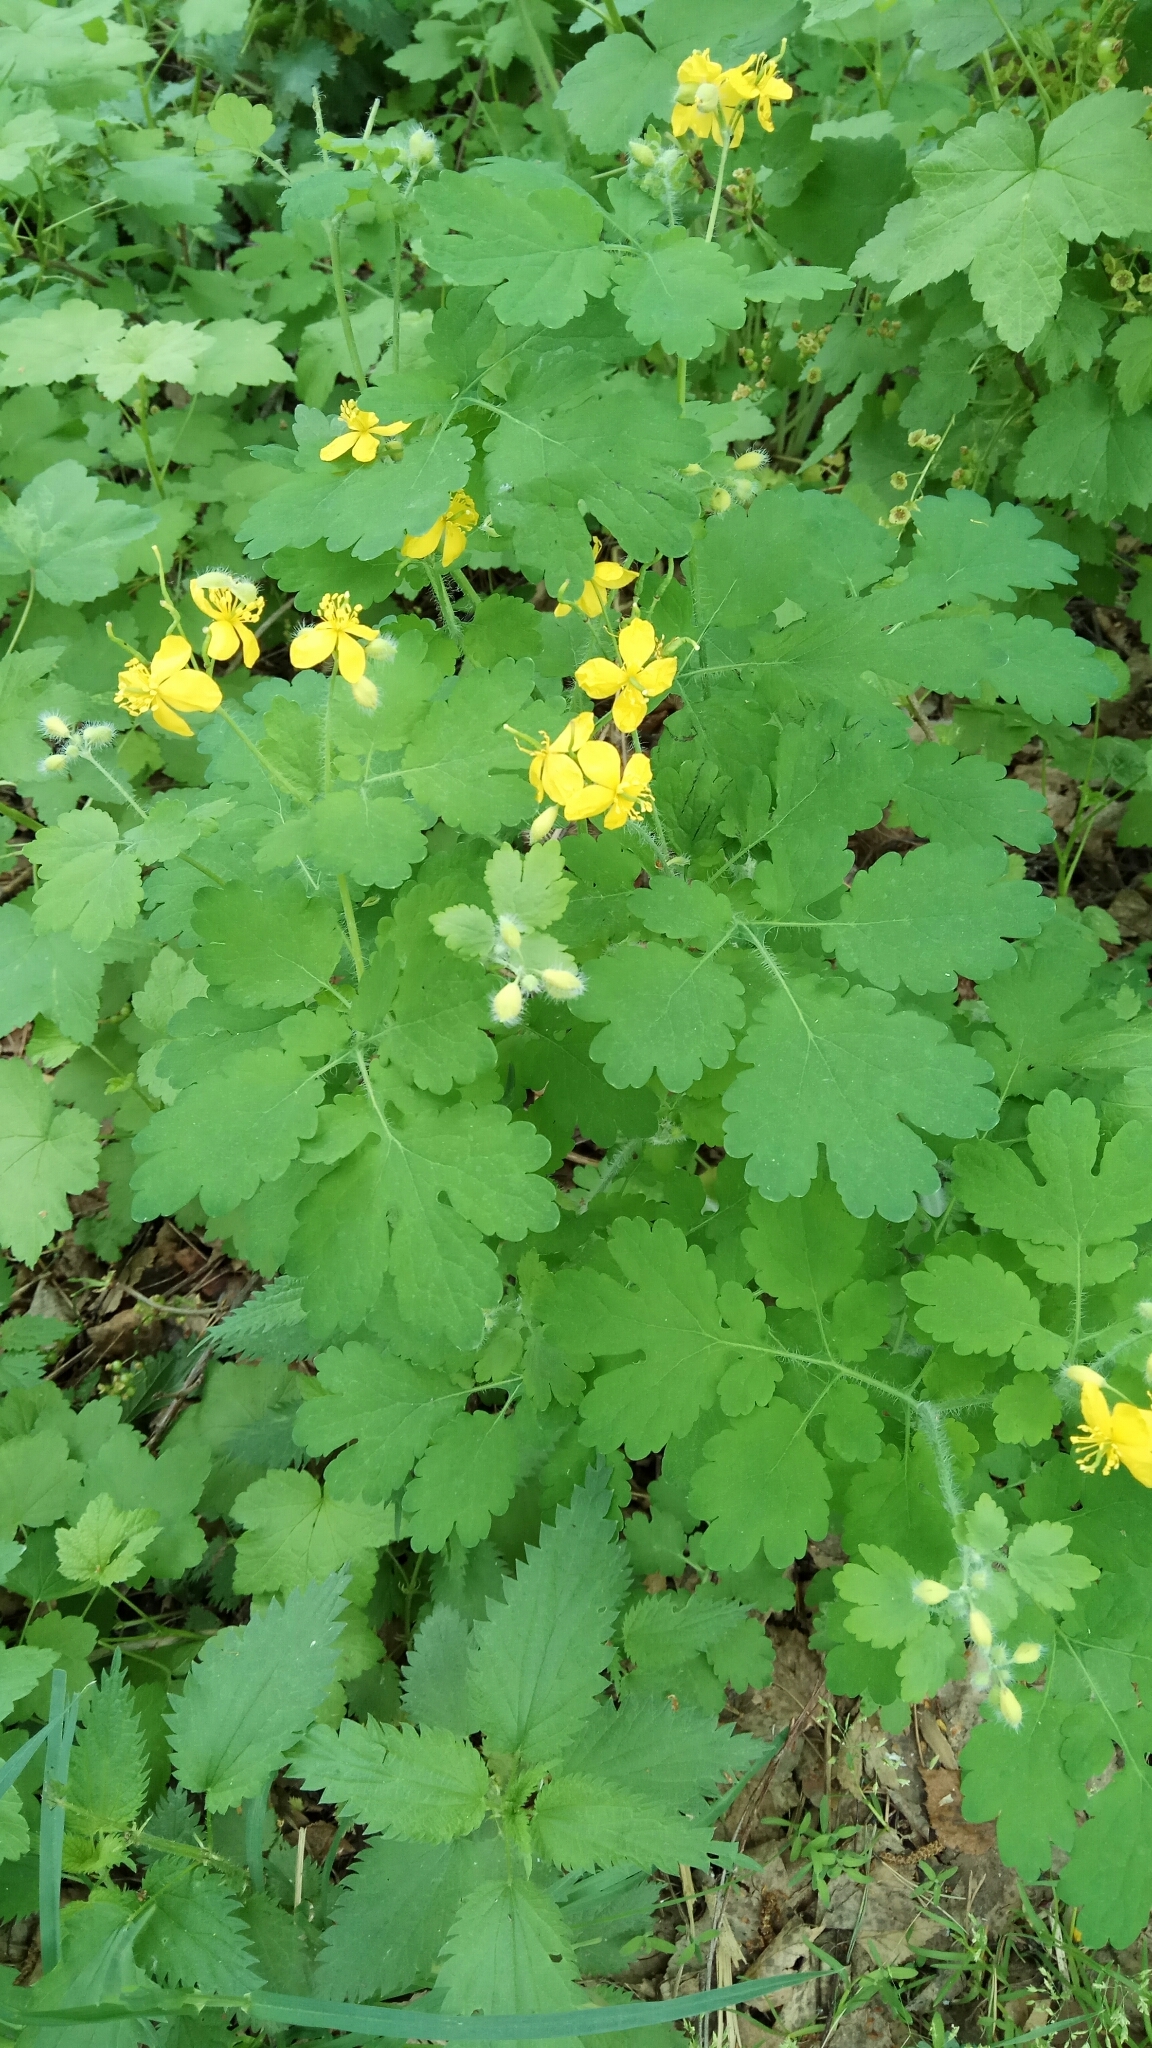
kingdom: Plantae
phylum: Tracheophyta
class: Magnoliopsida
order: Ranunculales
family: Papaveraceae
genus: Chelidonium
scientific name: Chelidonium majus
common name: Greater celandine
